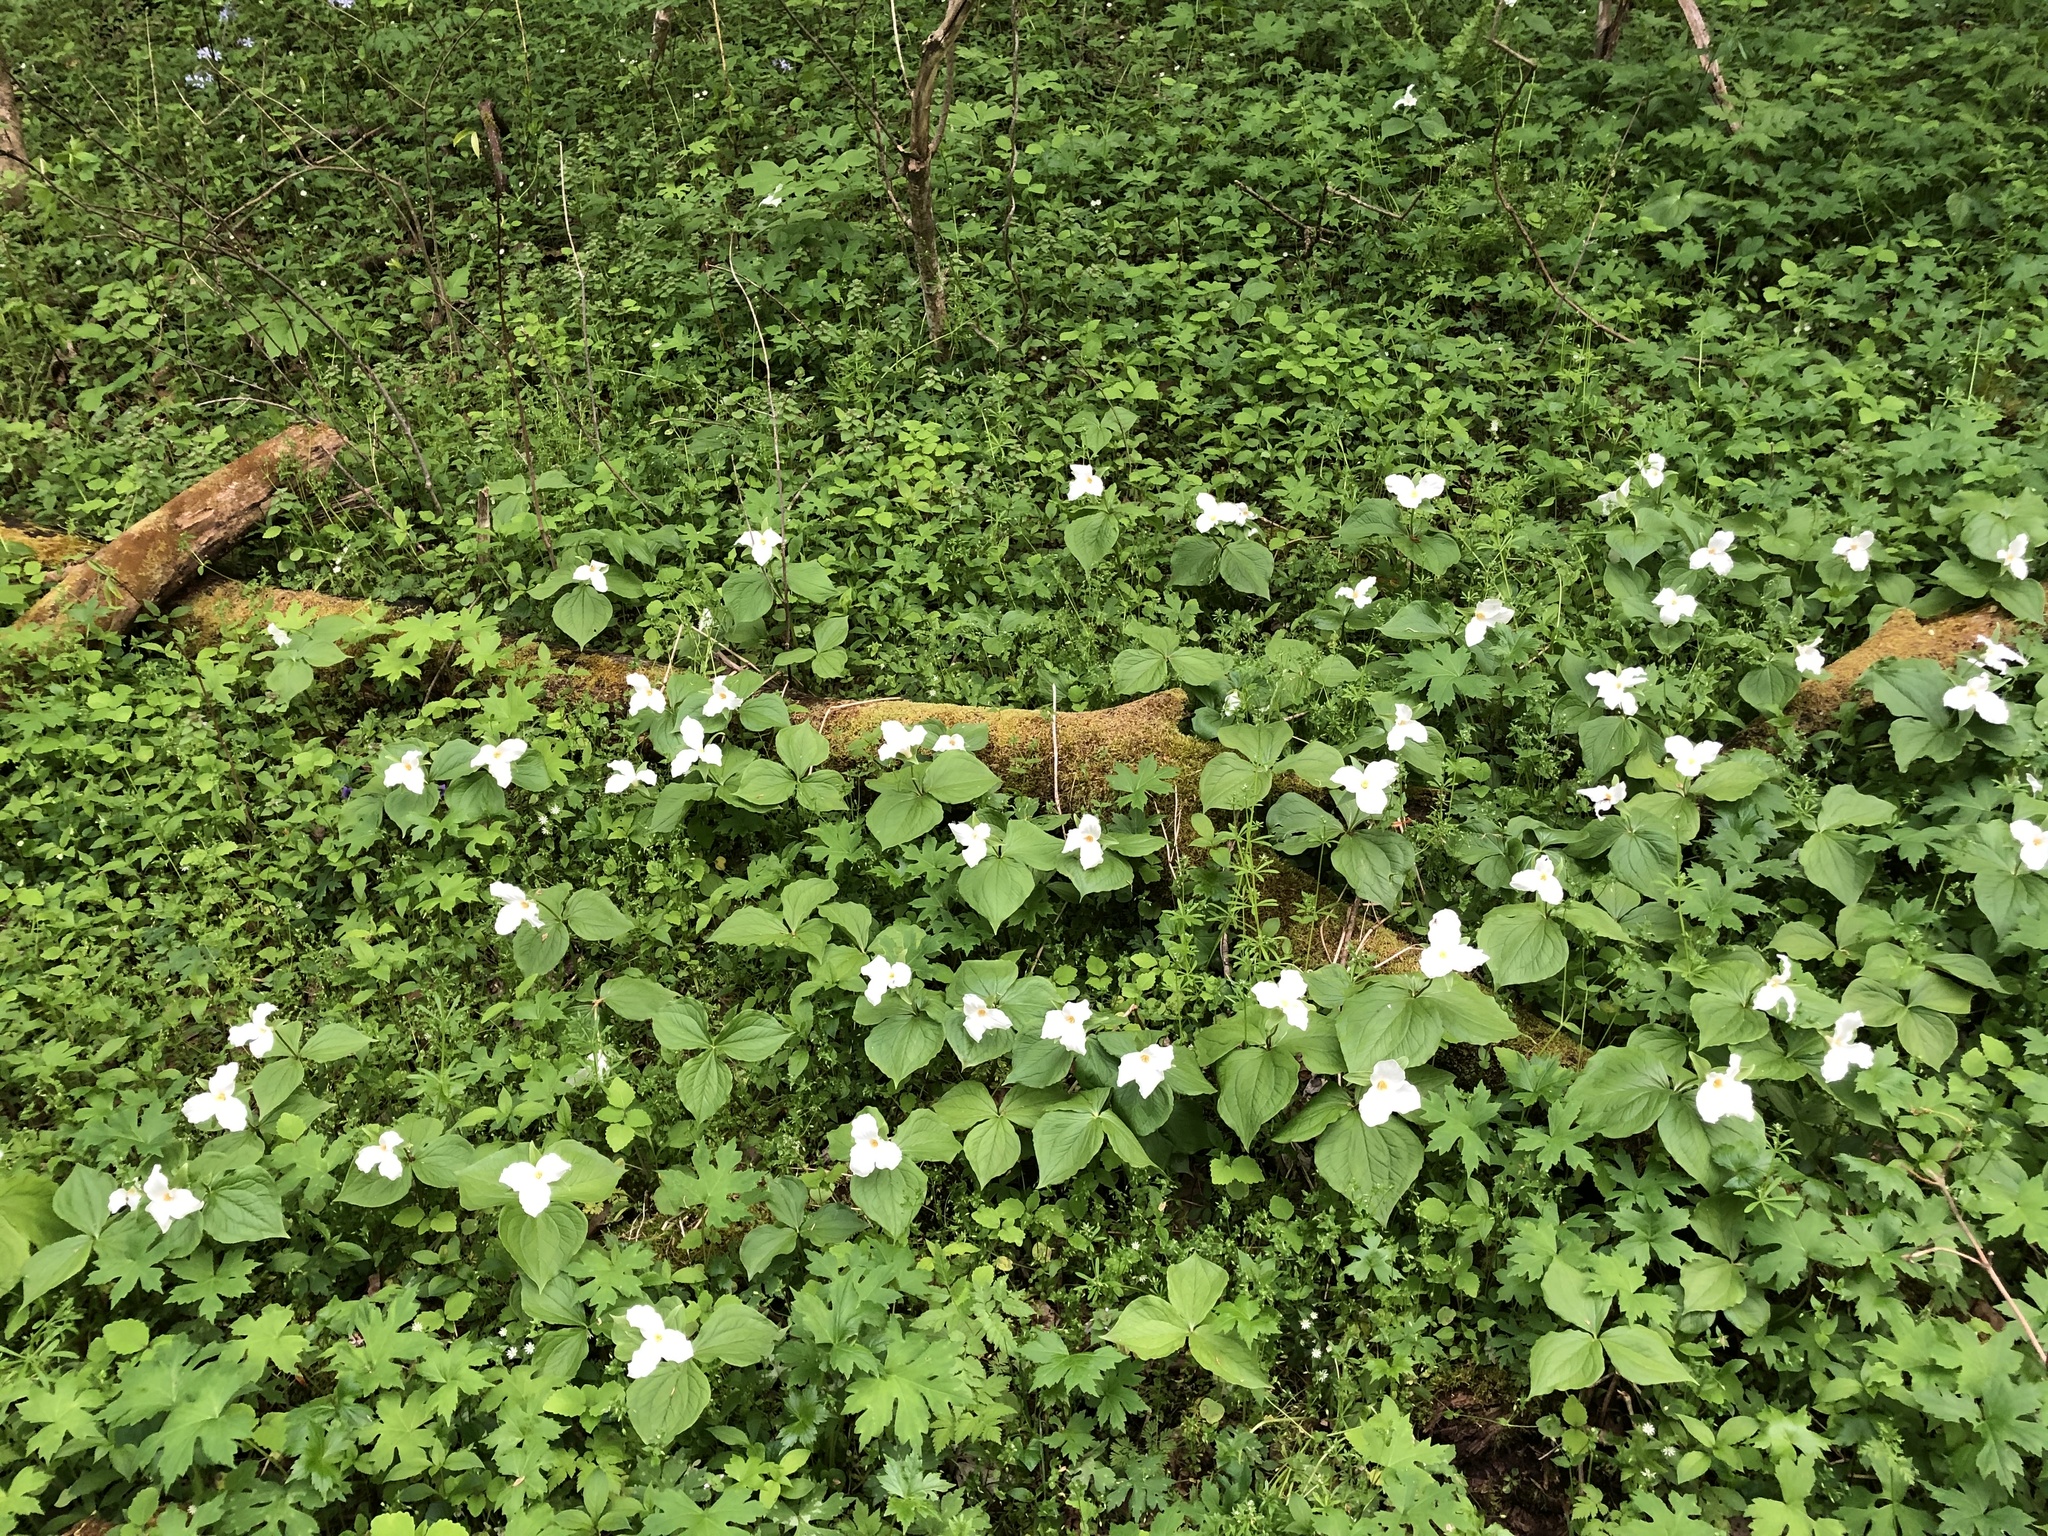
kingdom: Plantae
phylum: Tracheophyta
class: Liliopsida
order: Liliales
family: Melanthiaceae
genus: Trillium
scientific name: Trillium grandiflorum
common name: Great white trillium
